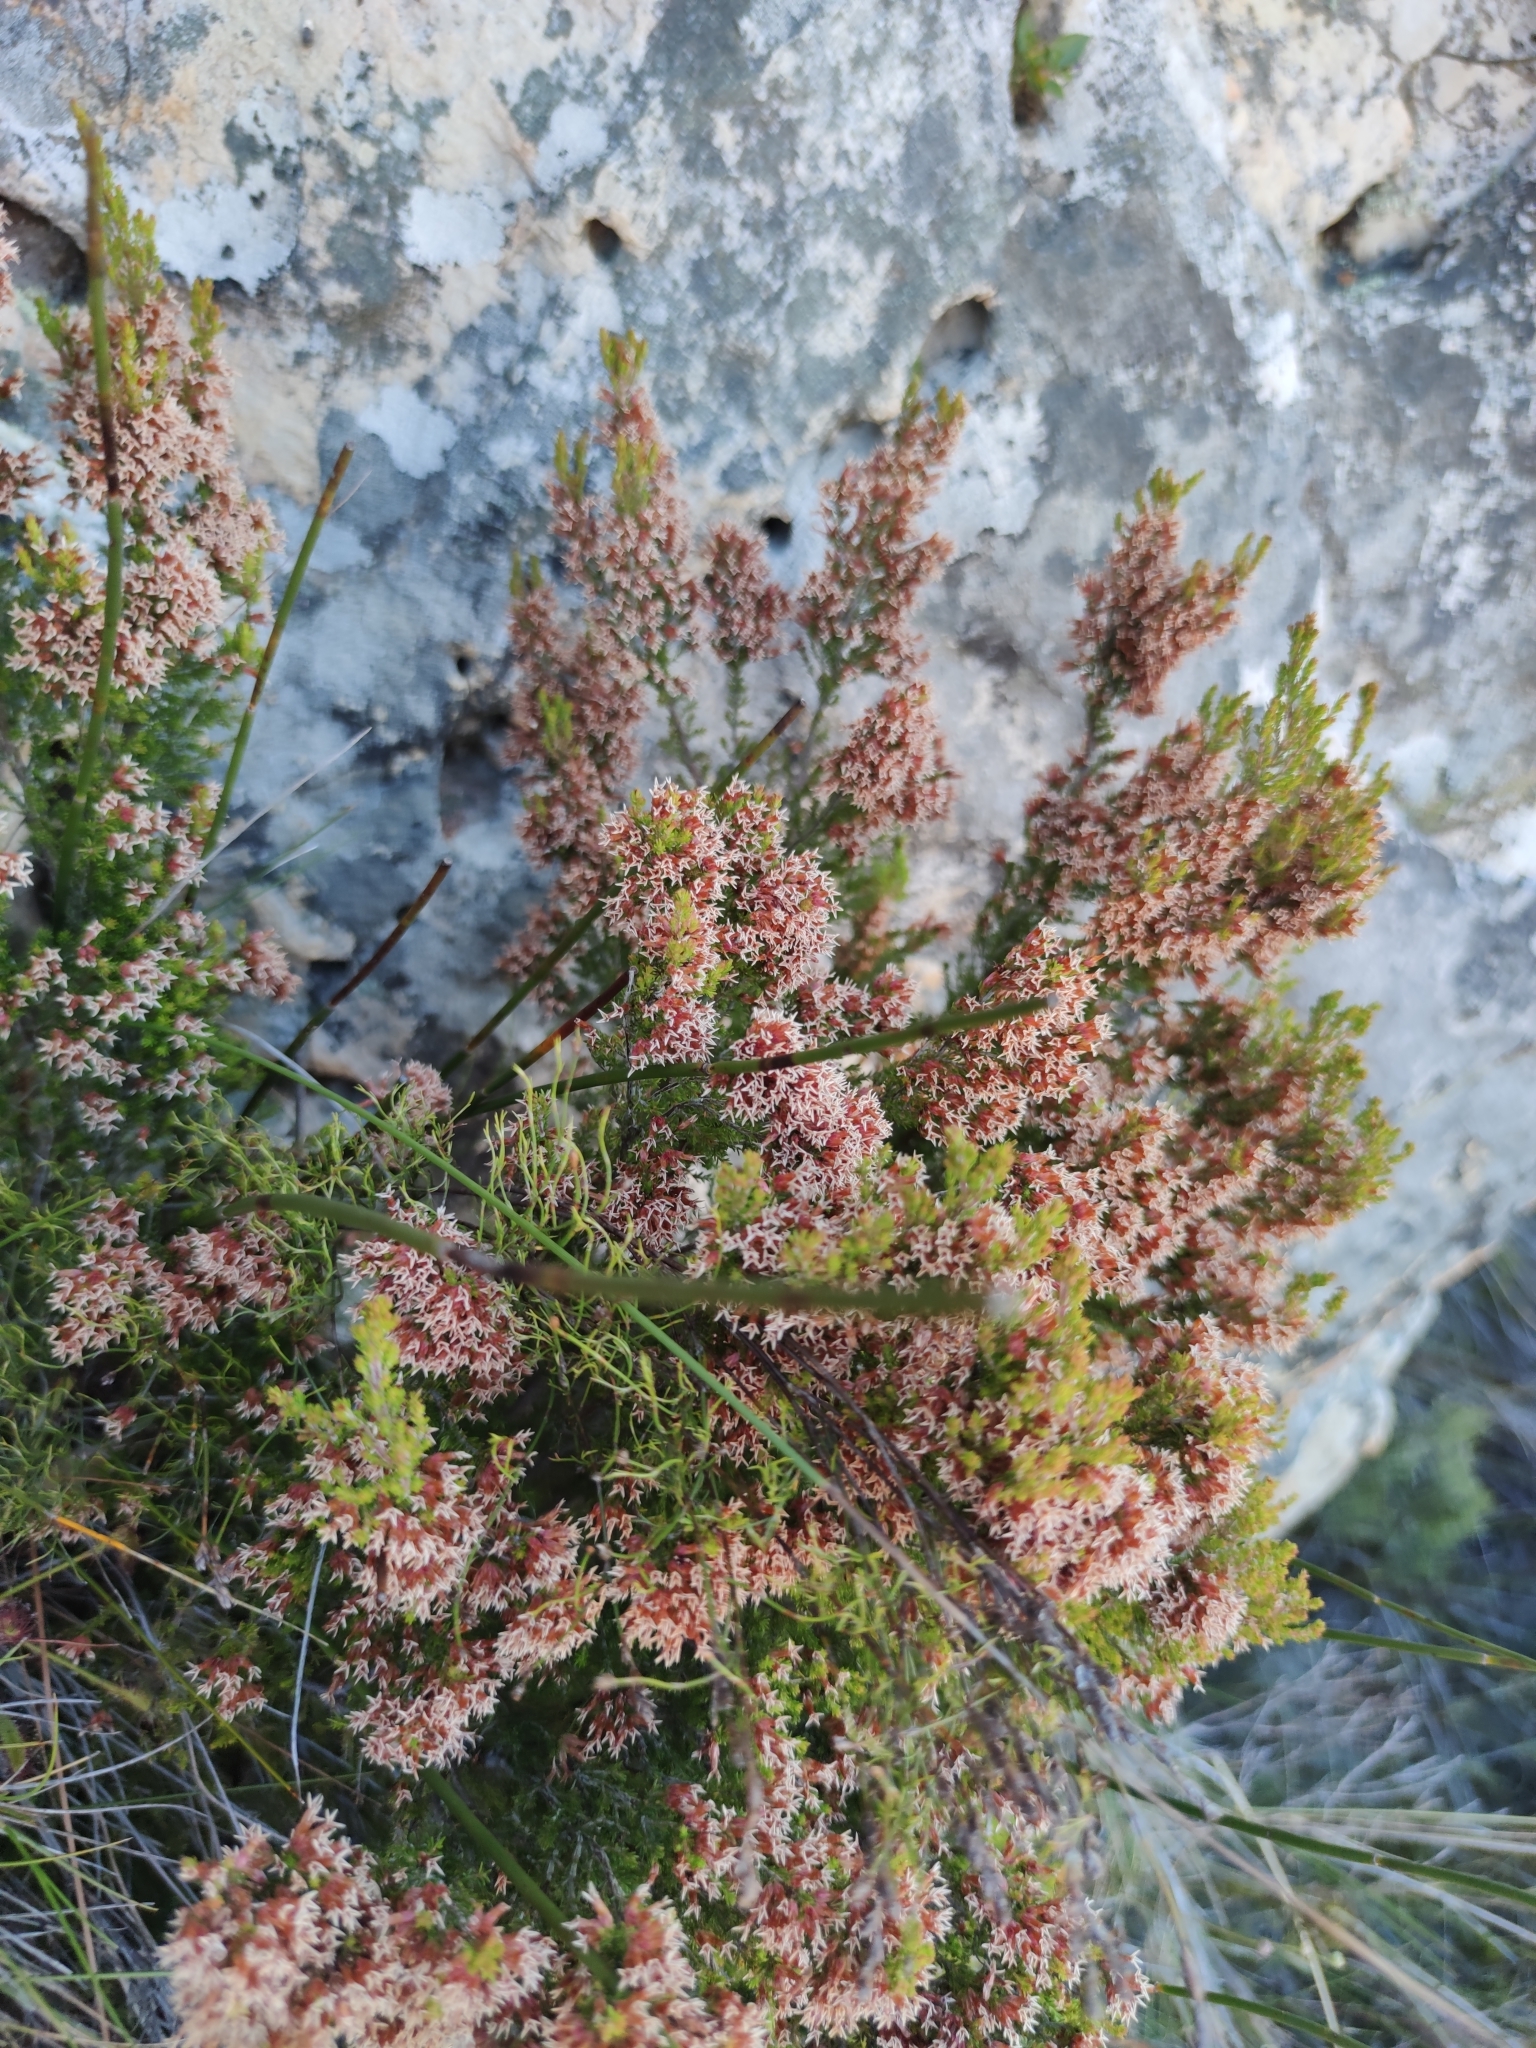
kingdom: Plantae
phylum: Tracheophyta
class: Magnoliopsida
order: Ericales
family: Ericaceae
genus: Erica
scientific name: Erica
